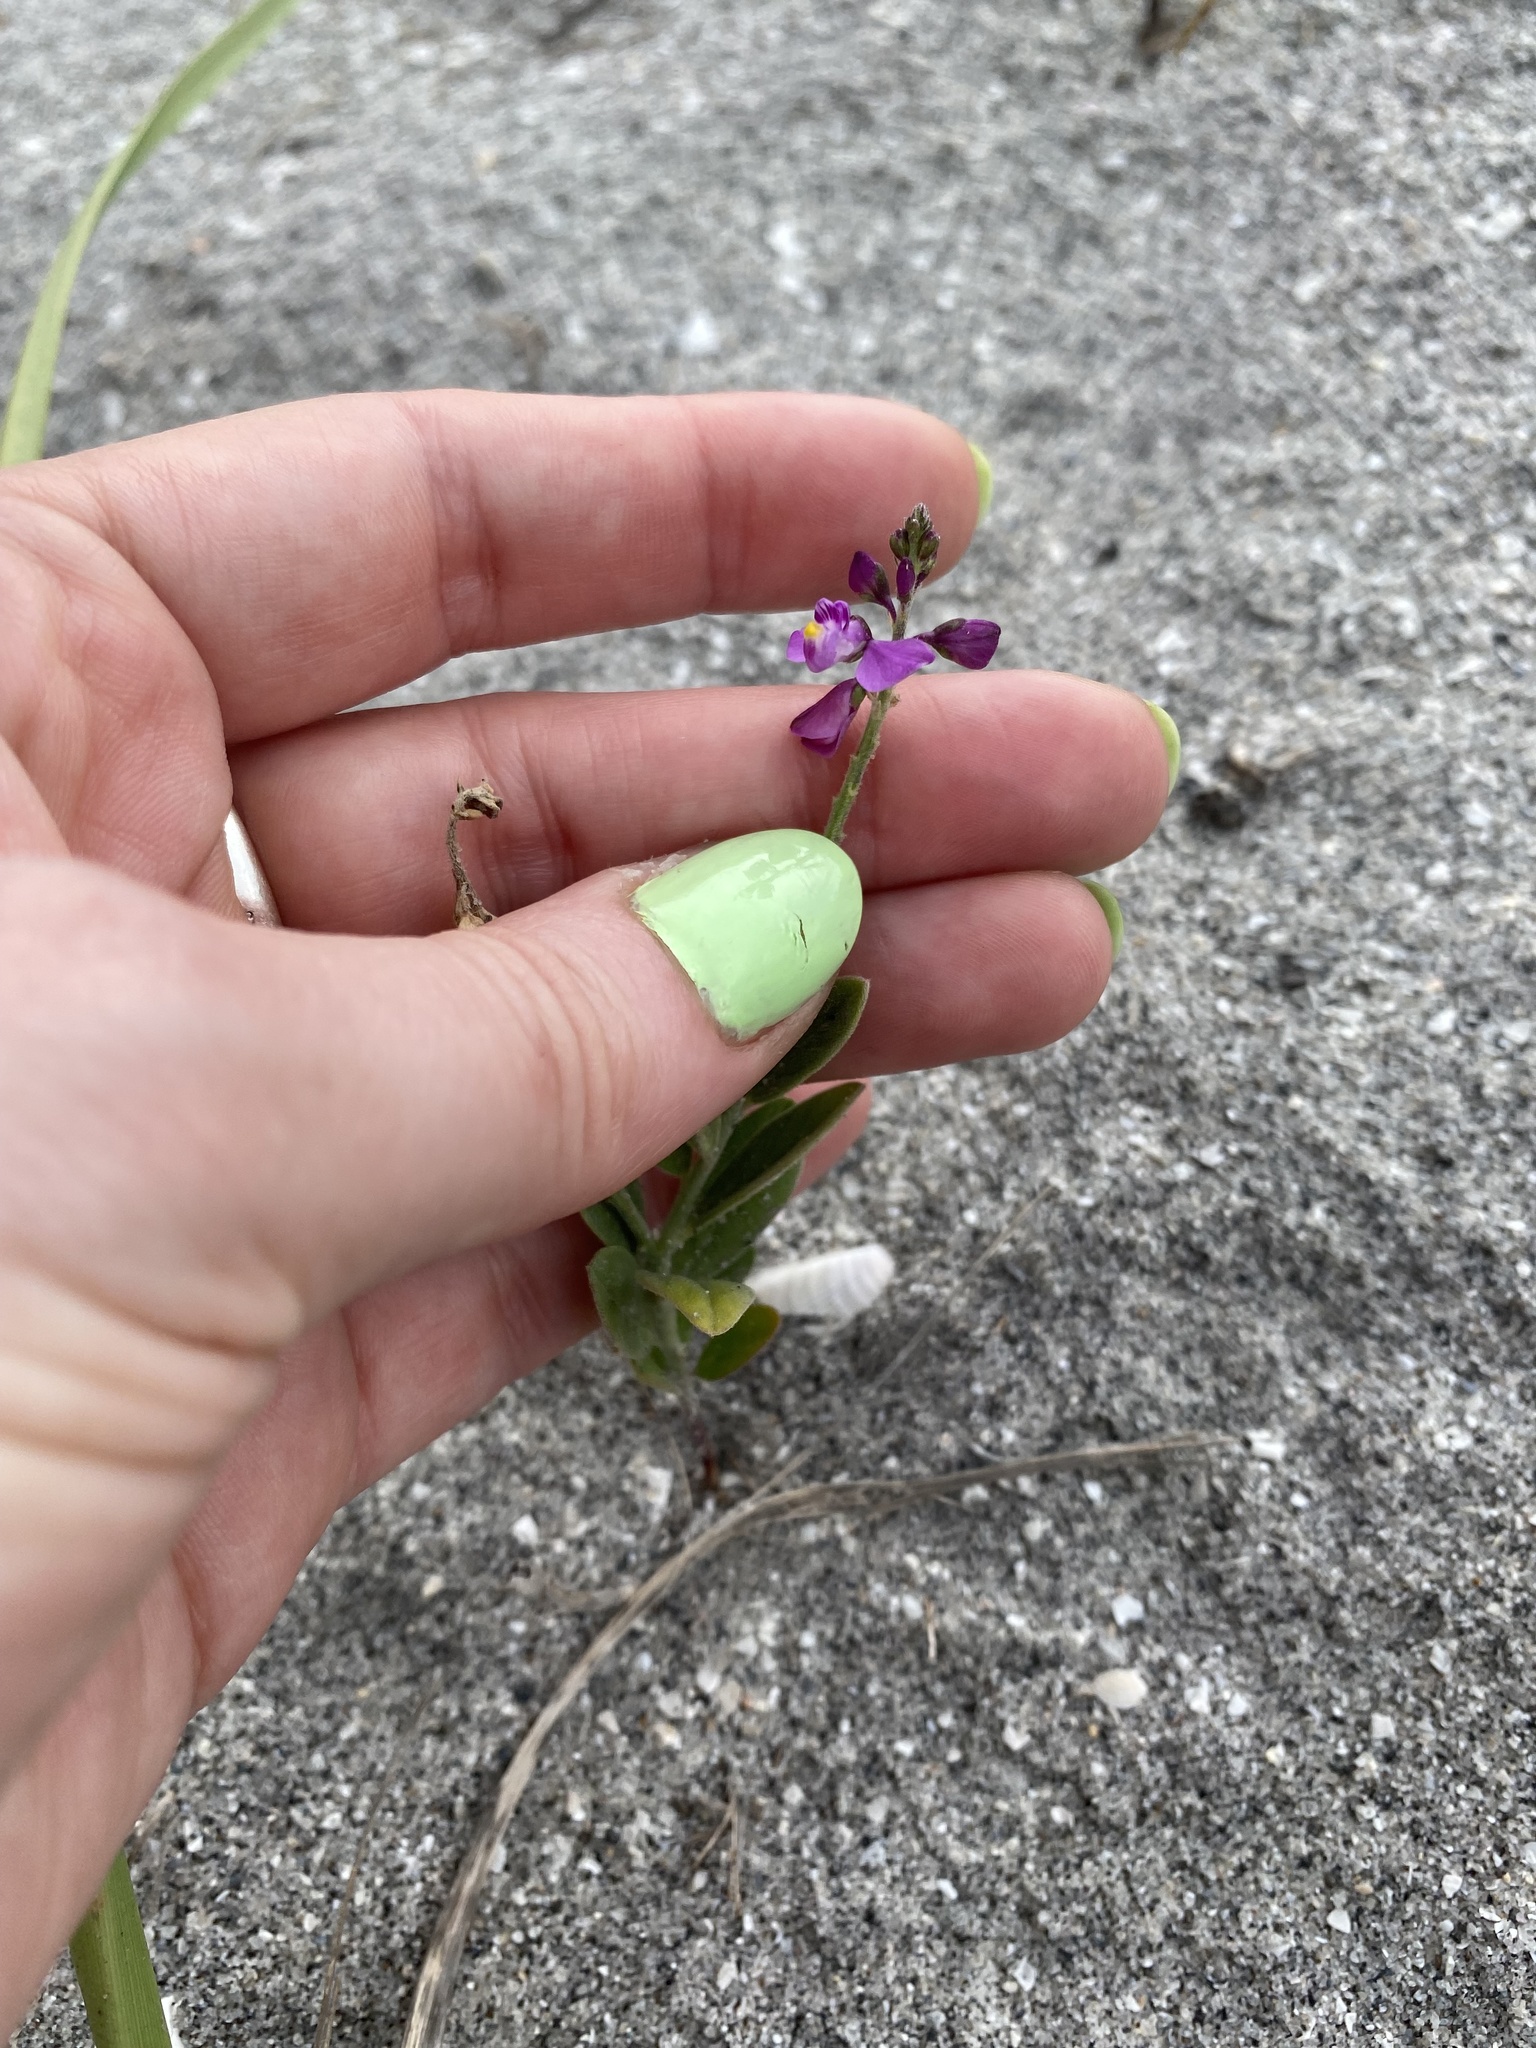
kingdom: Plantae
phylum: Tracheophyta
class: Magnoliopsida
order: Fabales
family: Polygalaceae
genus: Asemeia
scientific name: Asemeia grandiflora
